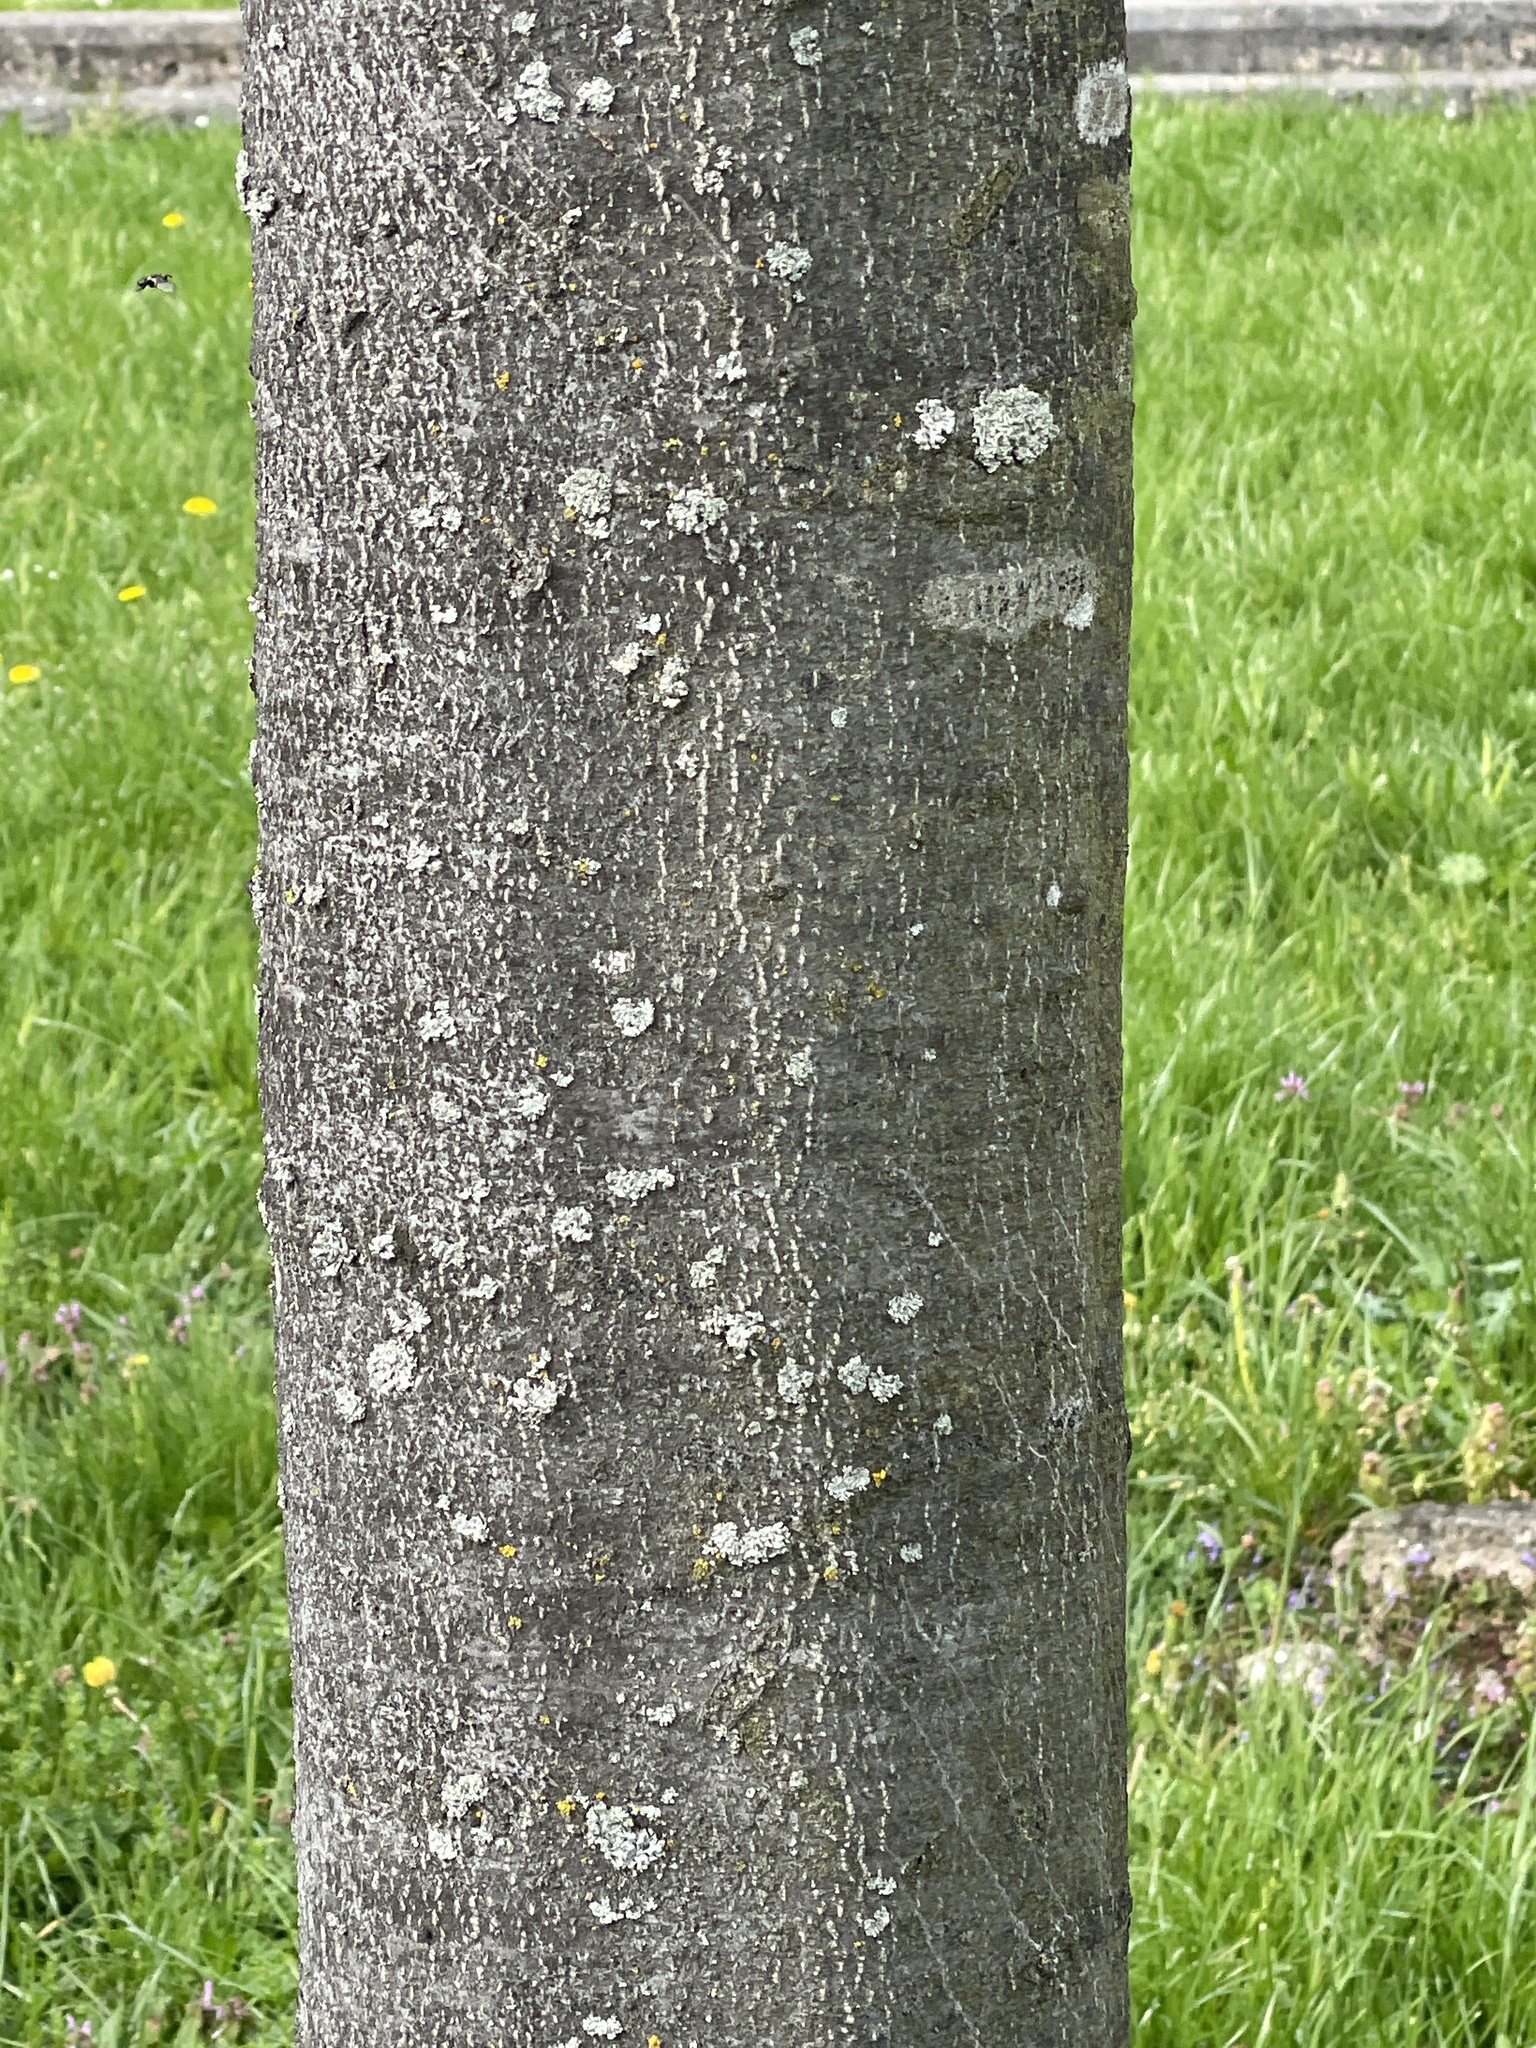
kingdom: Plantae
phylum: Tracheophyta
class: Magnoliopsida
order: Fagales
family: Fagaceae
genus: Fagus
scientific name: Fagus sylvatica
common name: Beech
